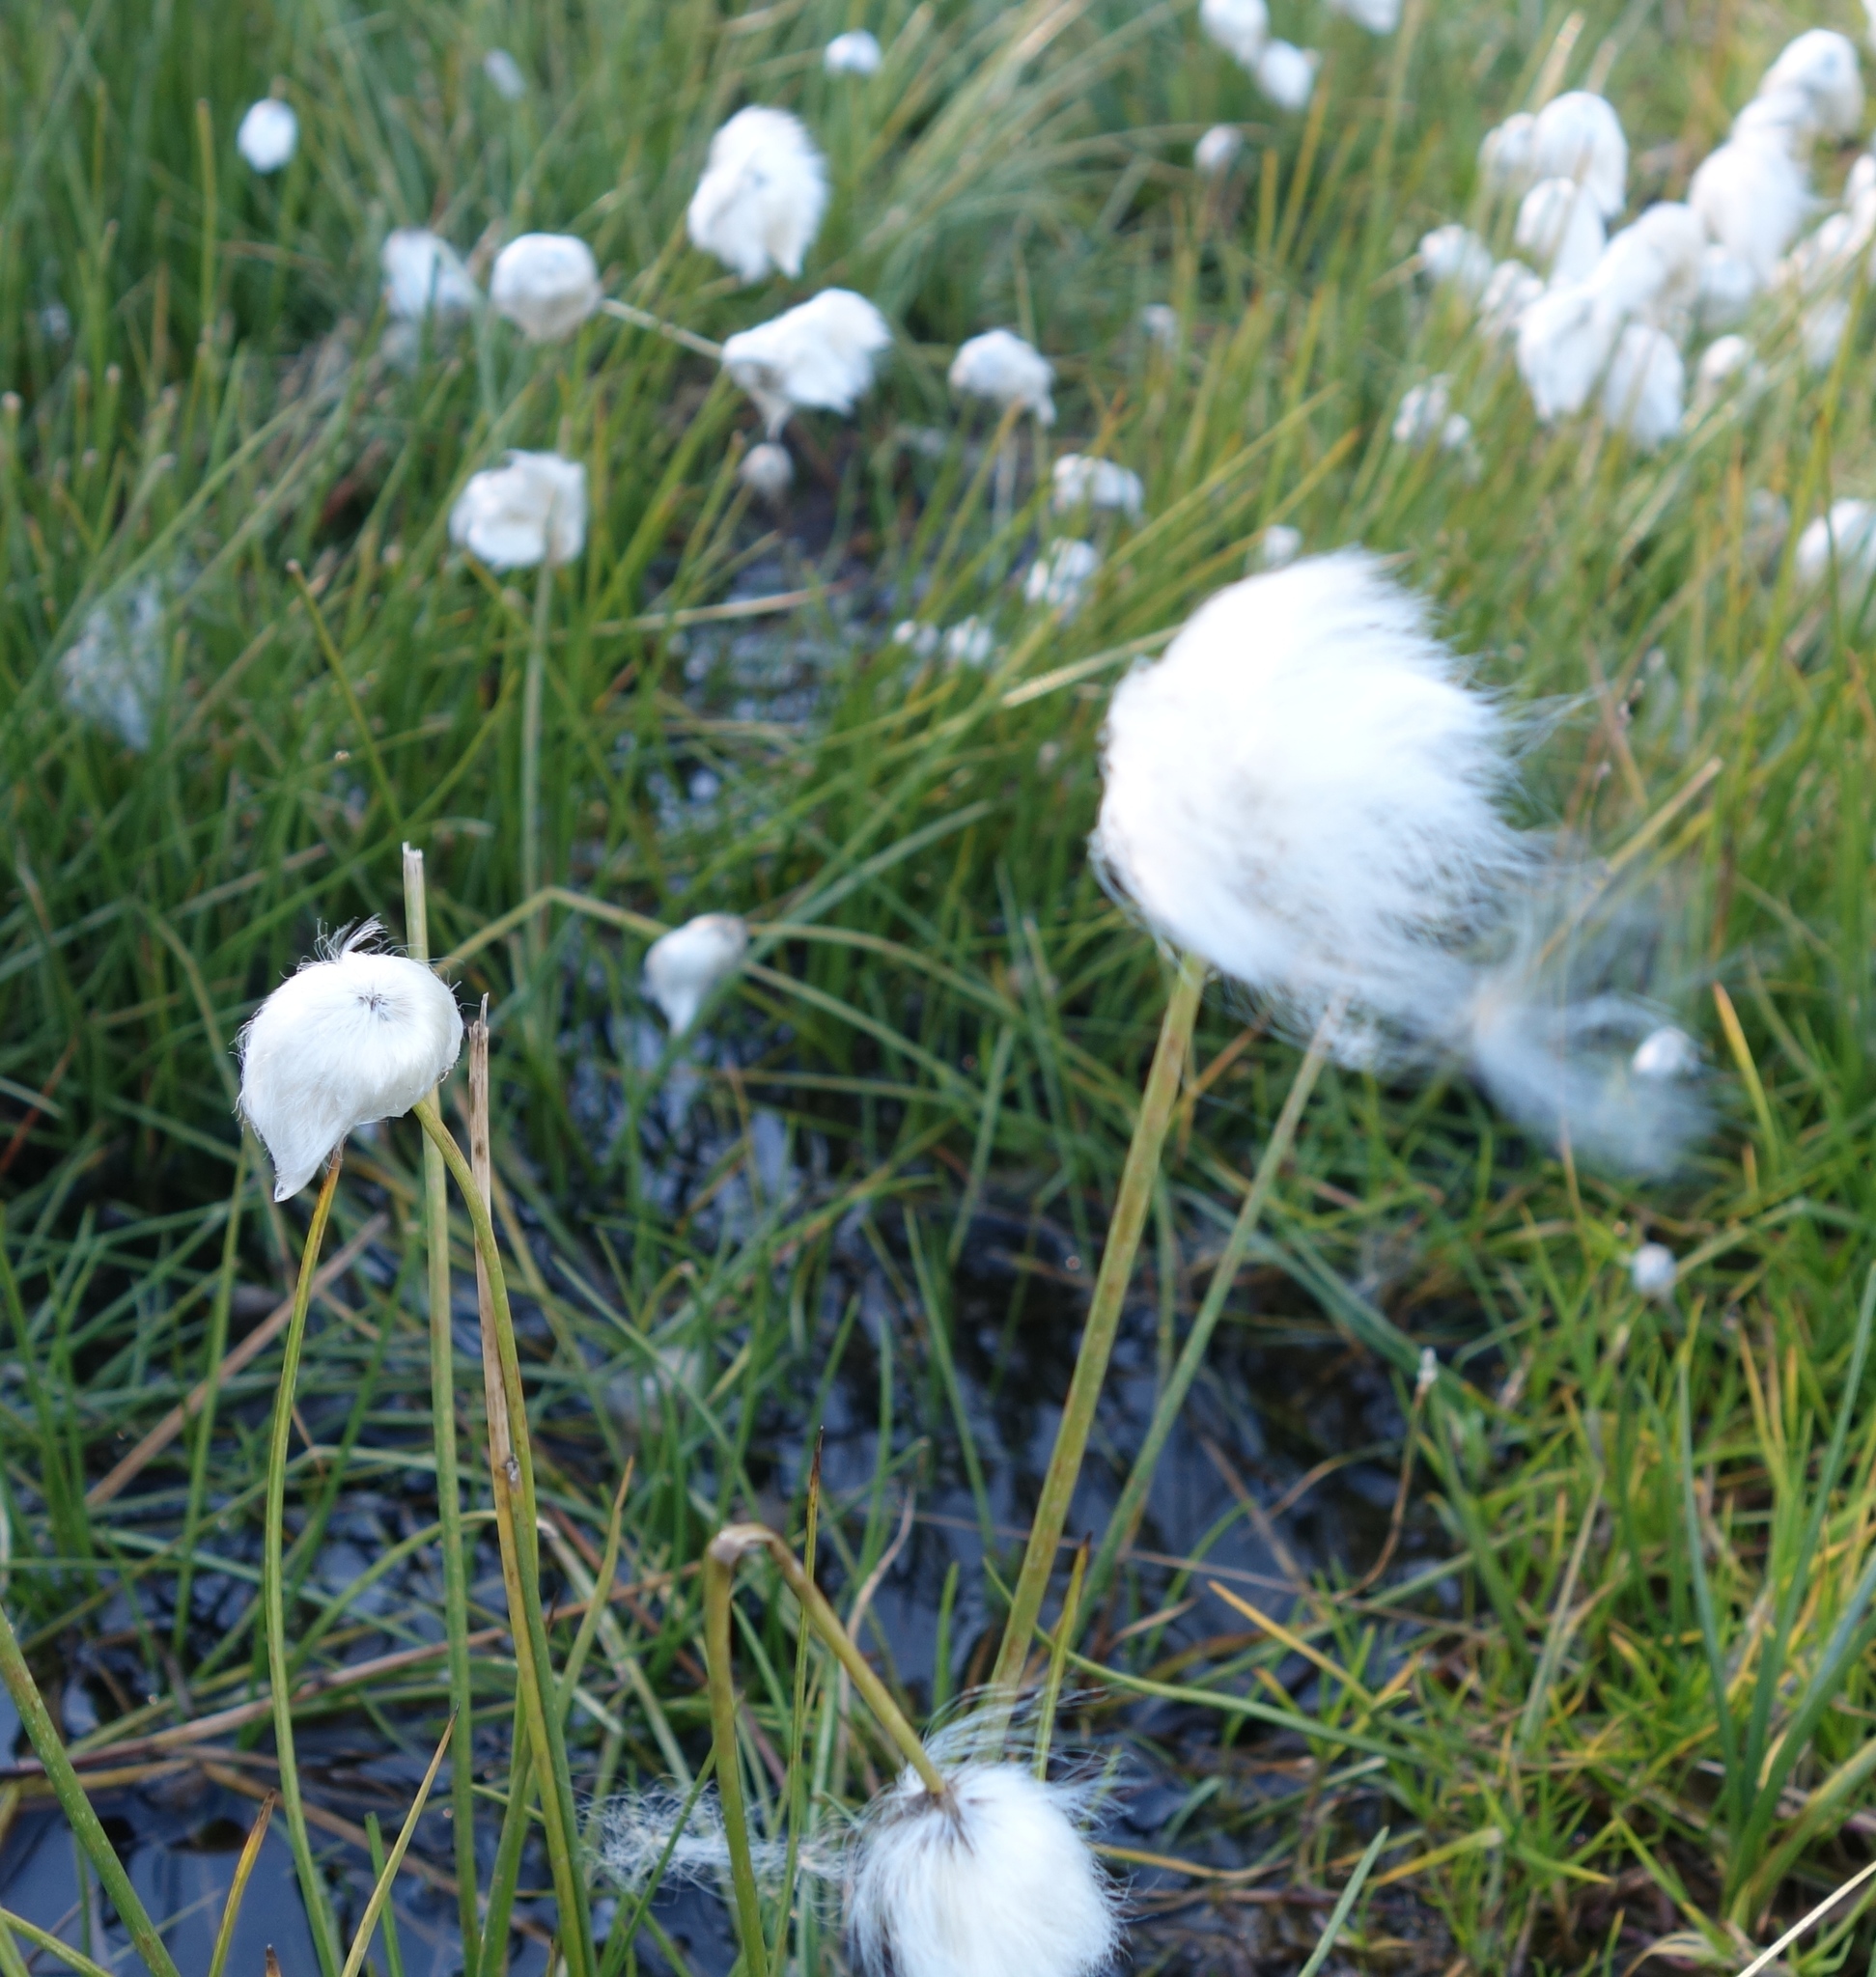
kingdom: Plantae
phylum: Tracheophyta
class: Liliopsida
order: Poales
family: Cyperaceae
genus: Eriophorum
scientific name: Eriophorum scheuchzeri
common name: Scheuchzer's cottongrass
